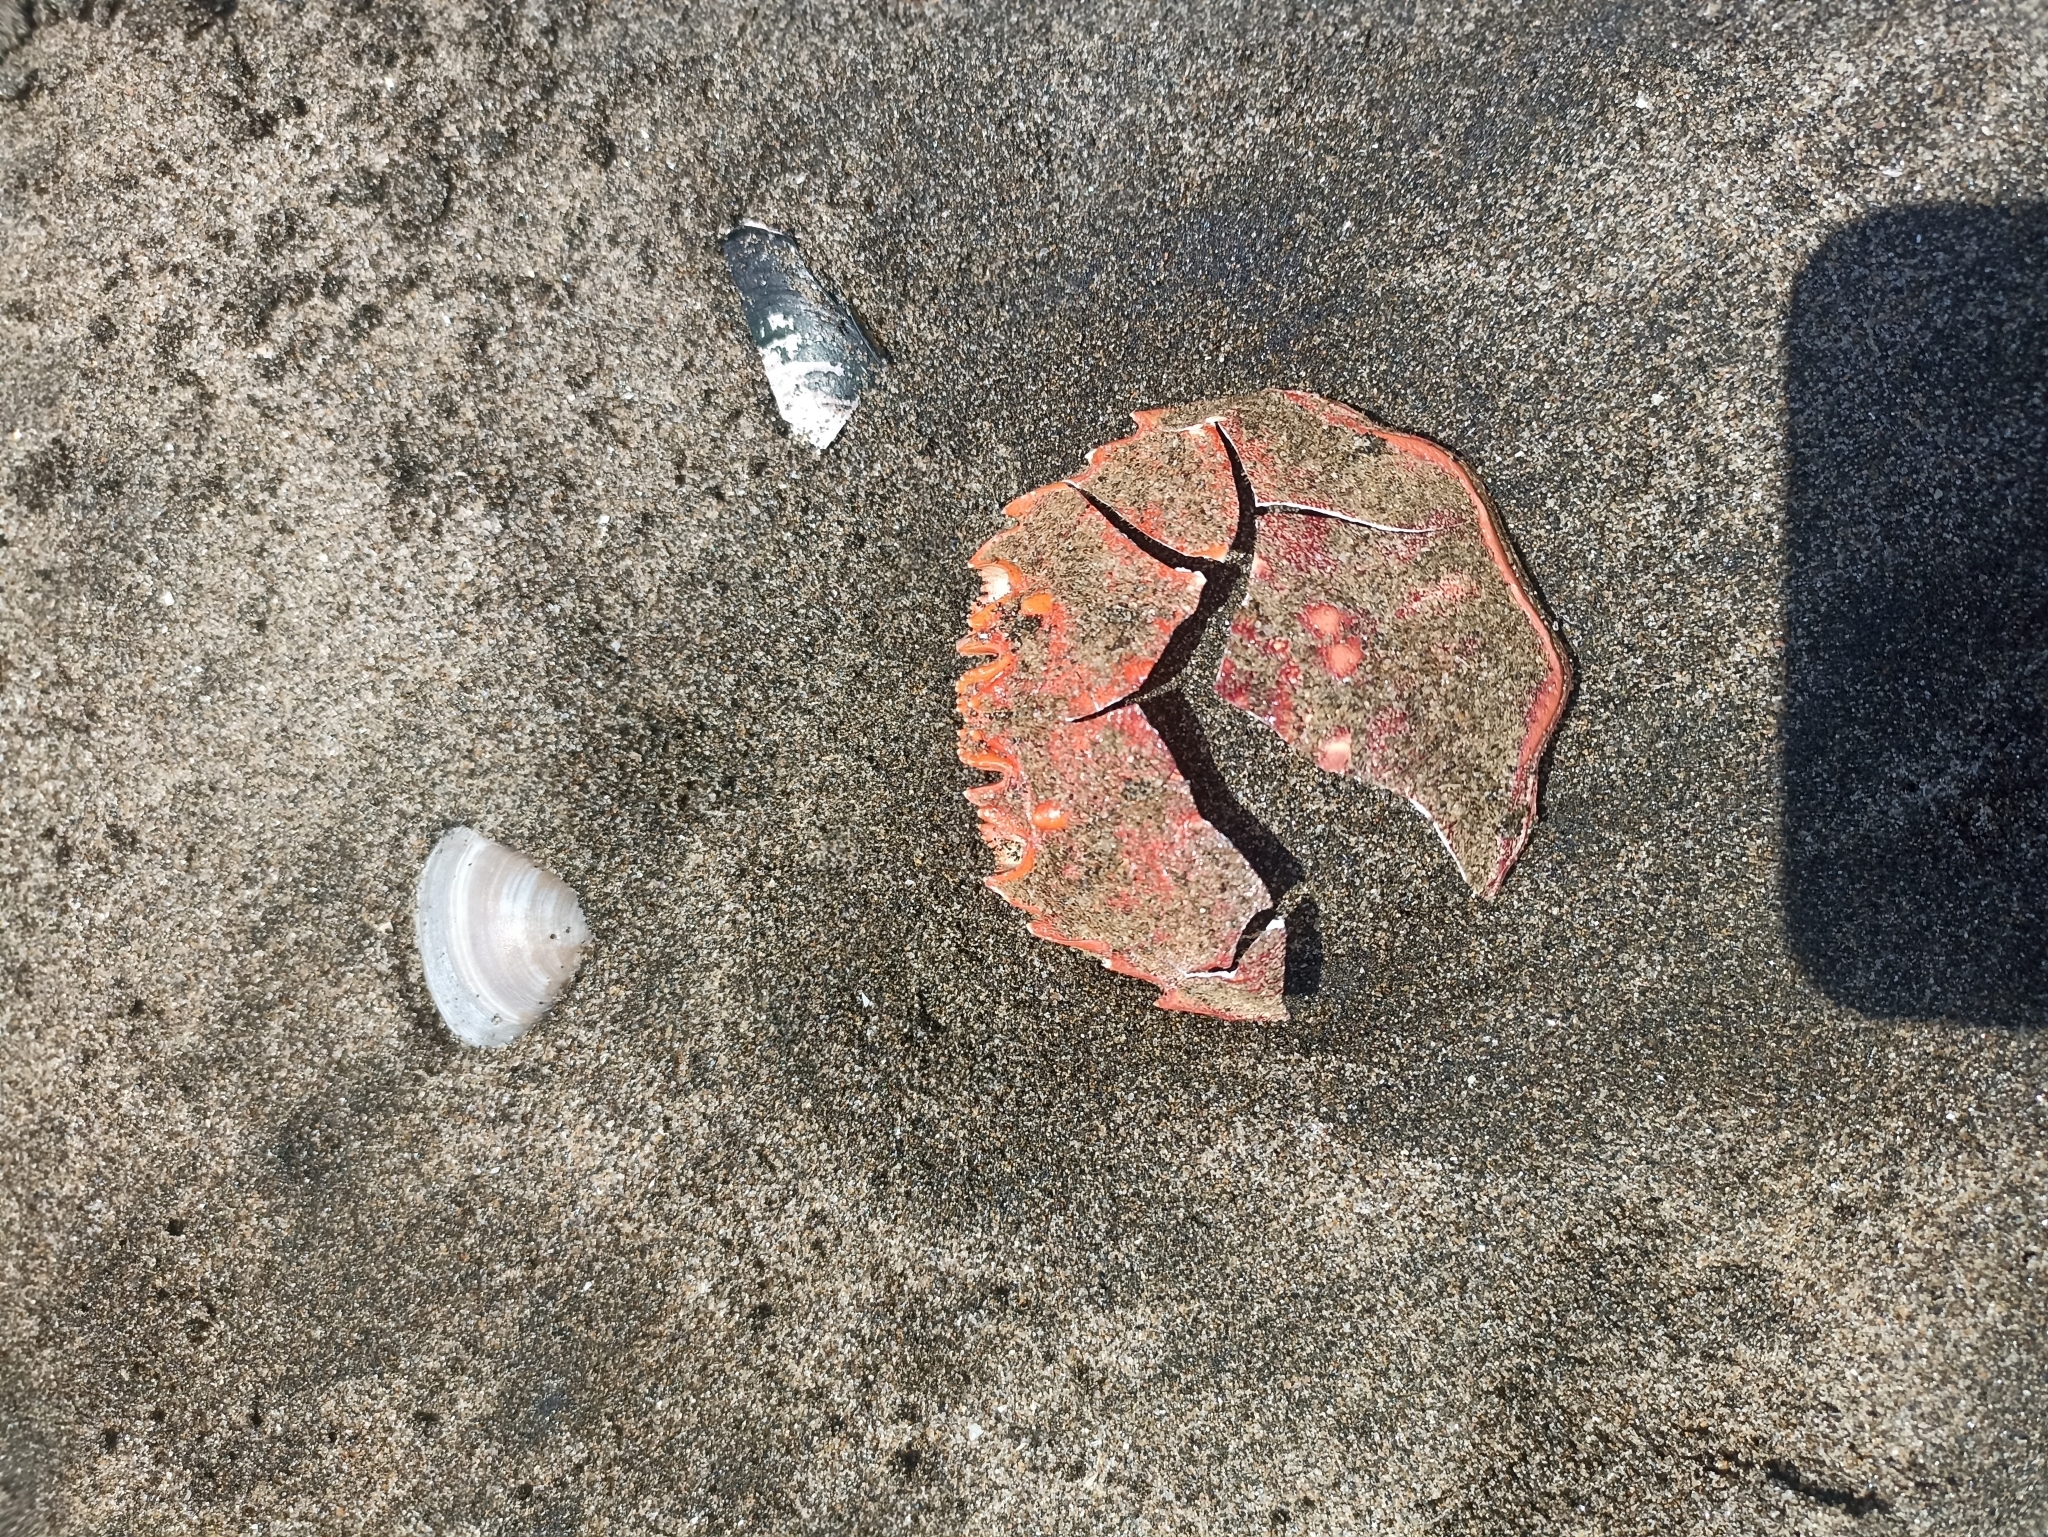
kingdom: Animalia
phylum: Arthropoda
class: Malacostraca
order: Decapoda
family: Plagusiidae
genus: Guinusia
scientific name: Guinusia chabrus
